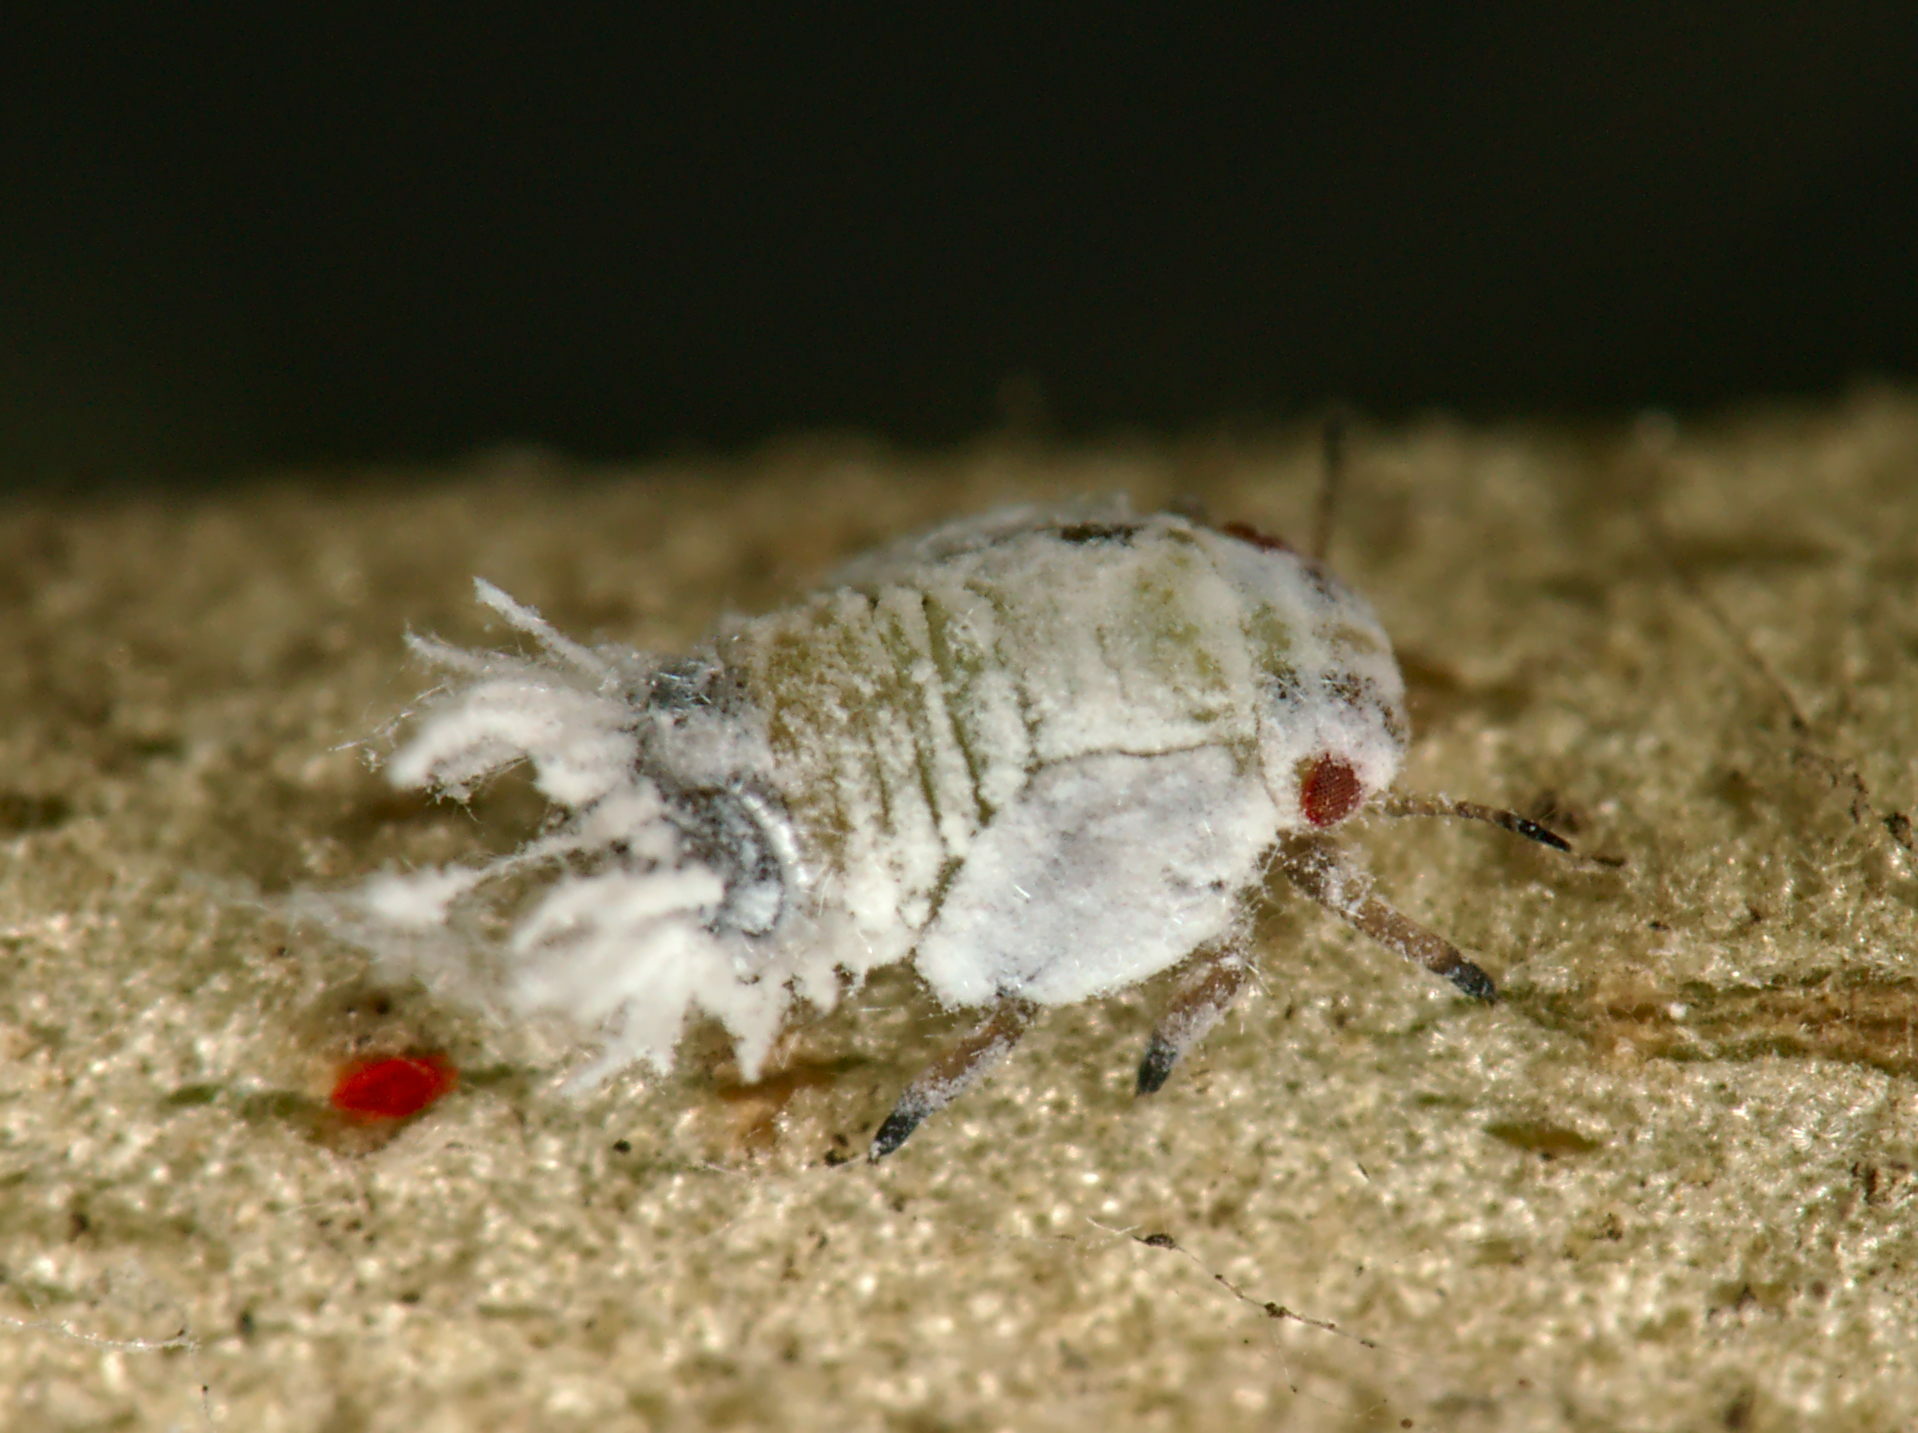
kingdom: Animalia
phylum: Arthropoda
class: Insecta
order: Hemiptera
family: Liviidae
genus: Euphyllura
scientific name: Euphyllura olivina
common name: Olive psyllid
